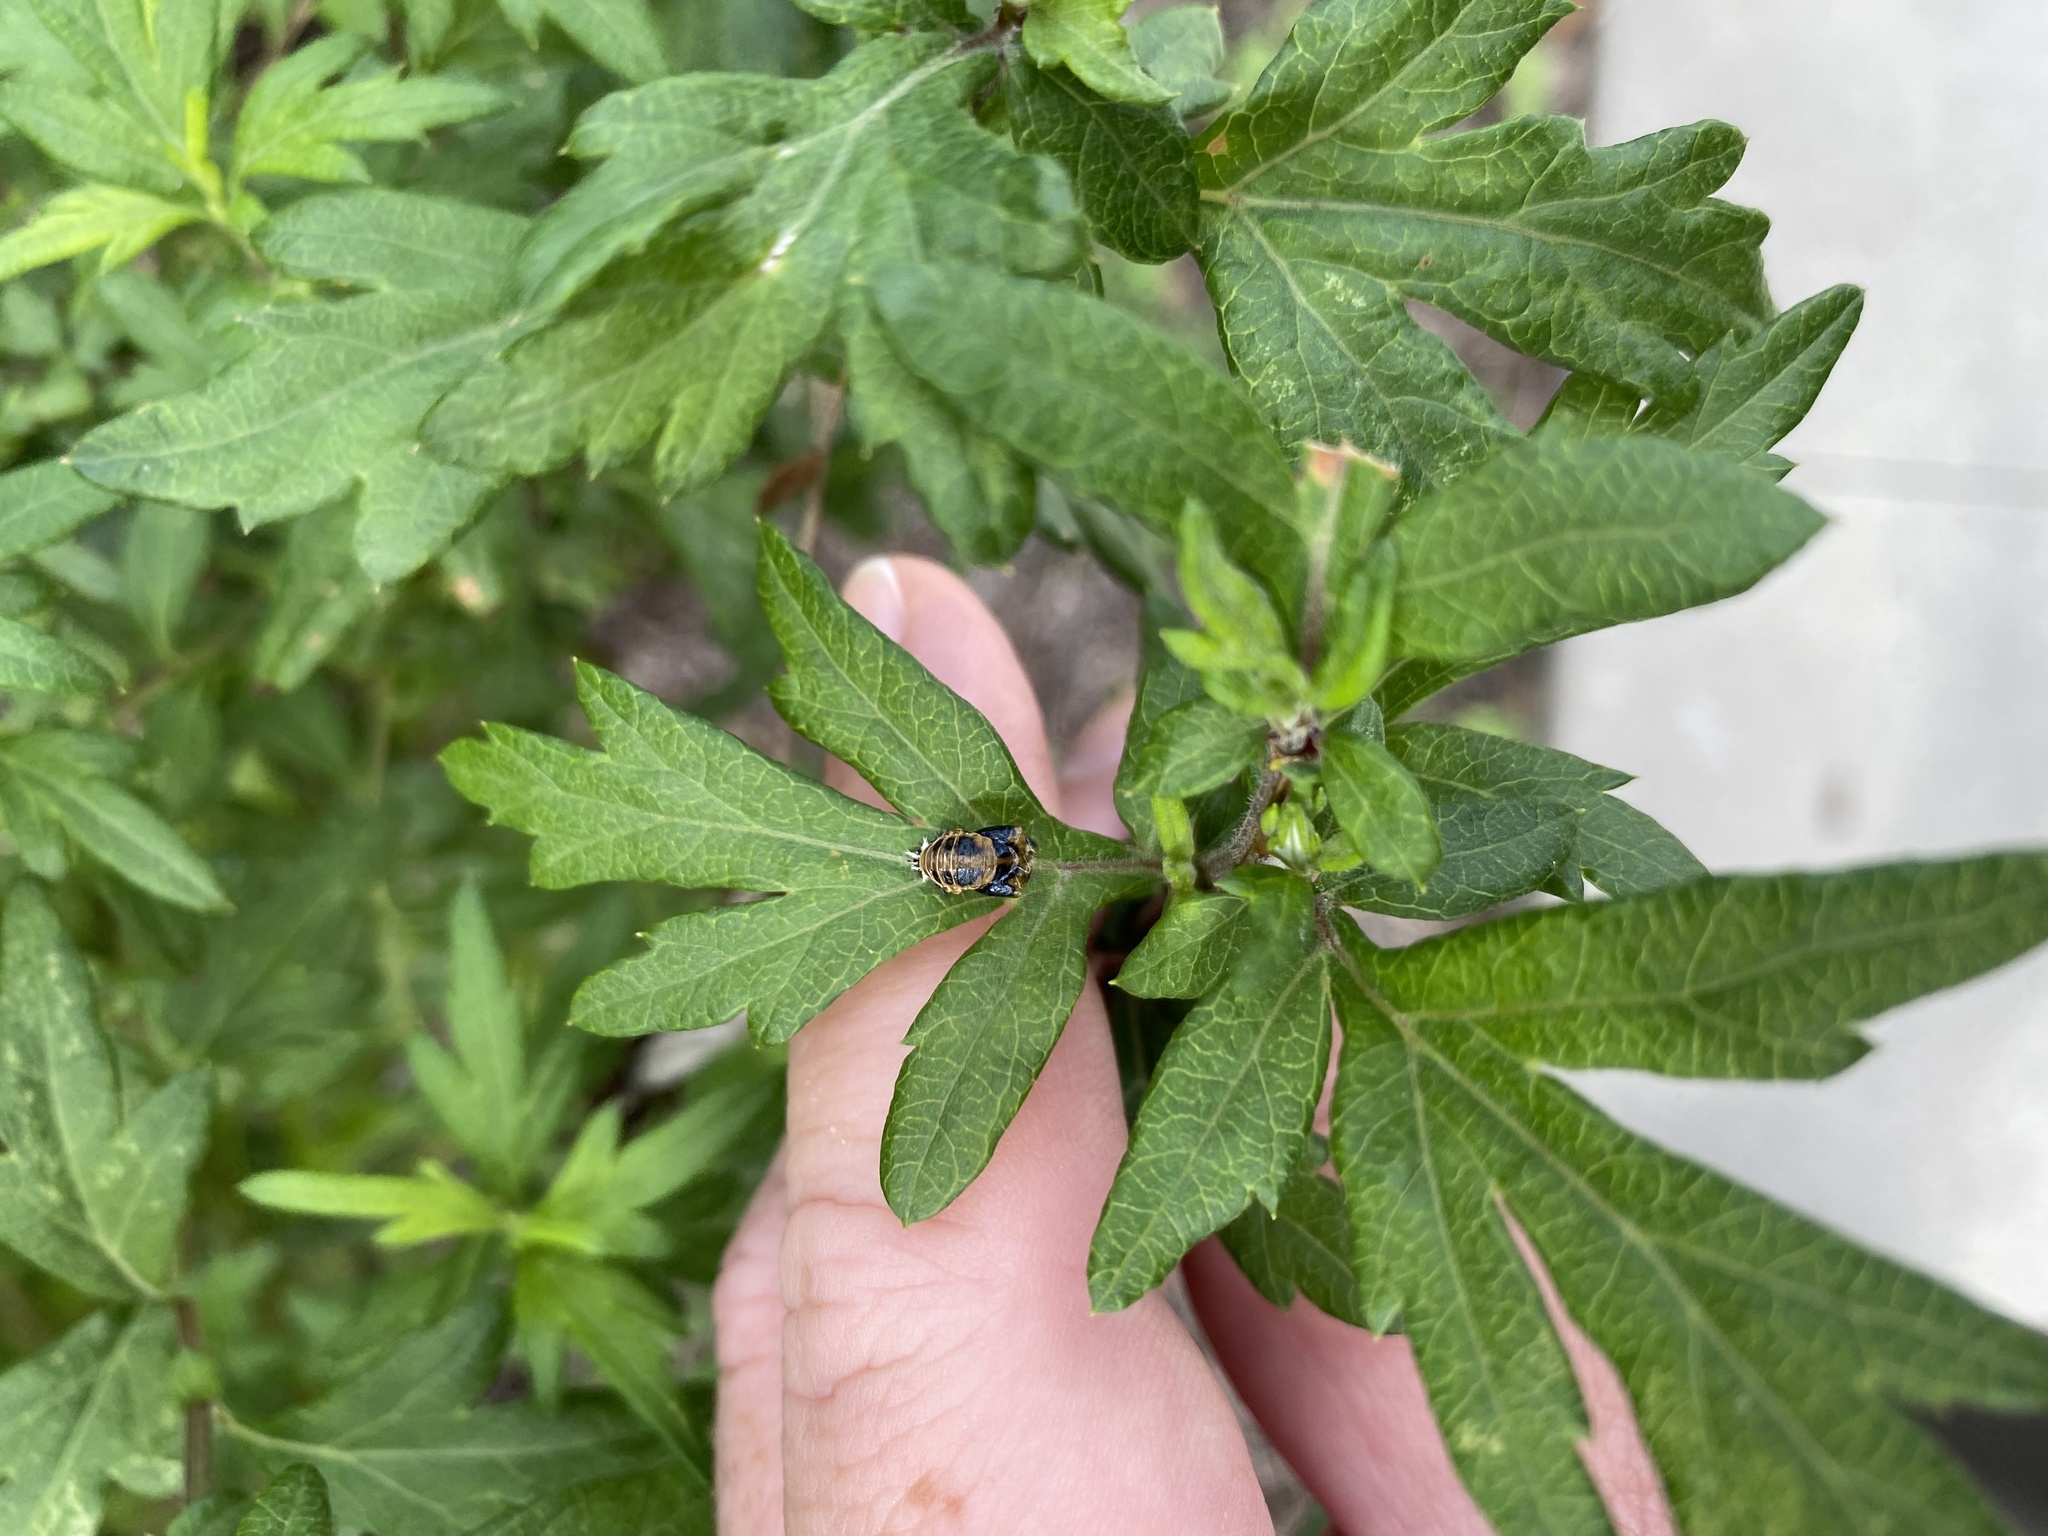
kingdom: Animalia
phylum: Arthropoda
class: Insecta
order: Coleoptera
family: Coccinellidae
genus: Harmonia
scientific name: Harmonia axyridis
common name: Harlequin ladybird
